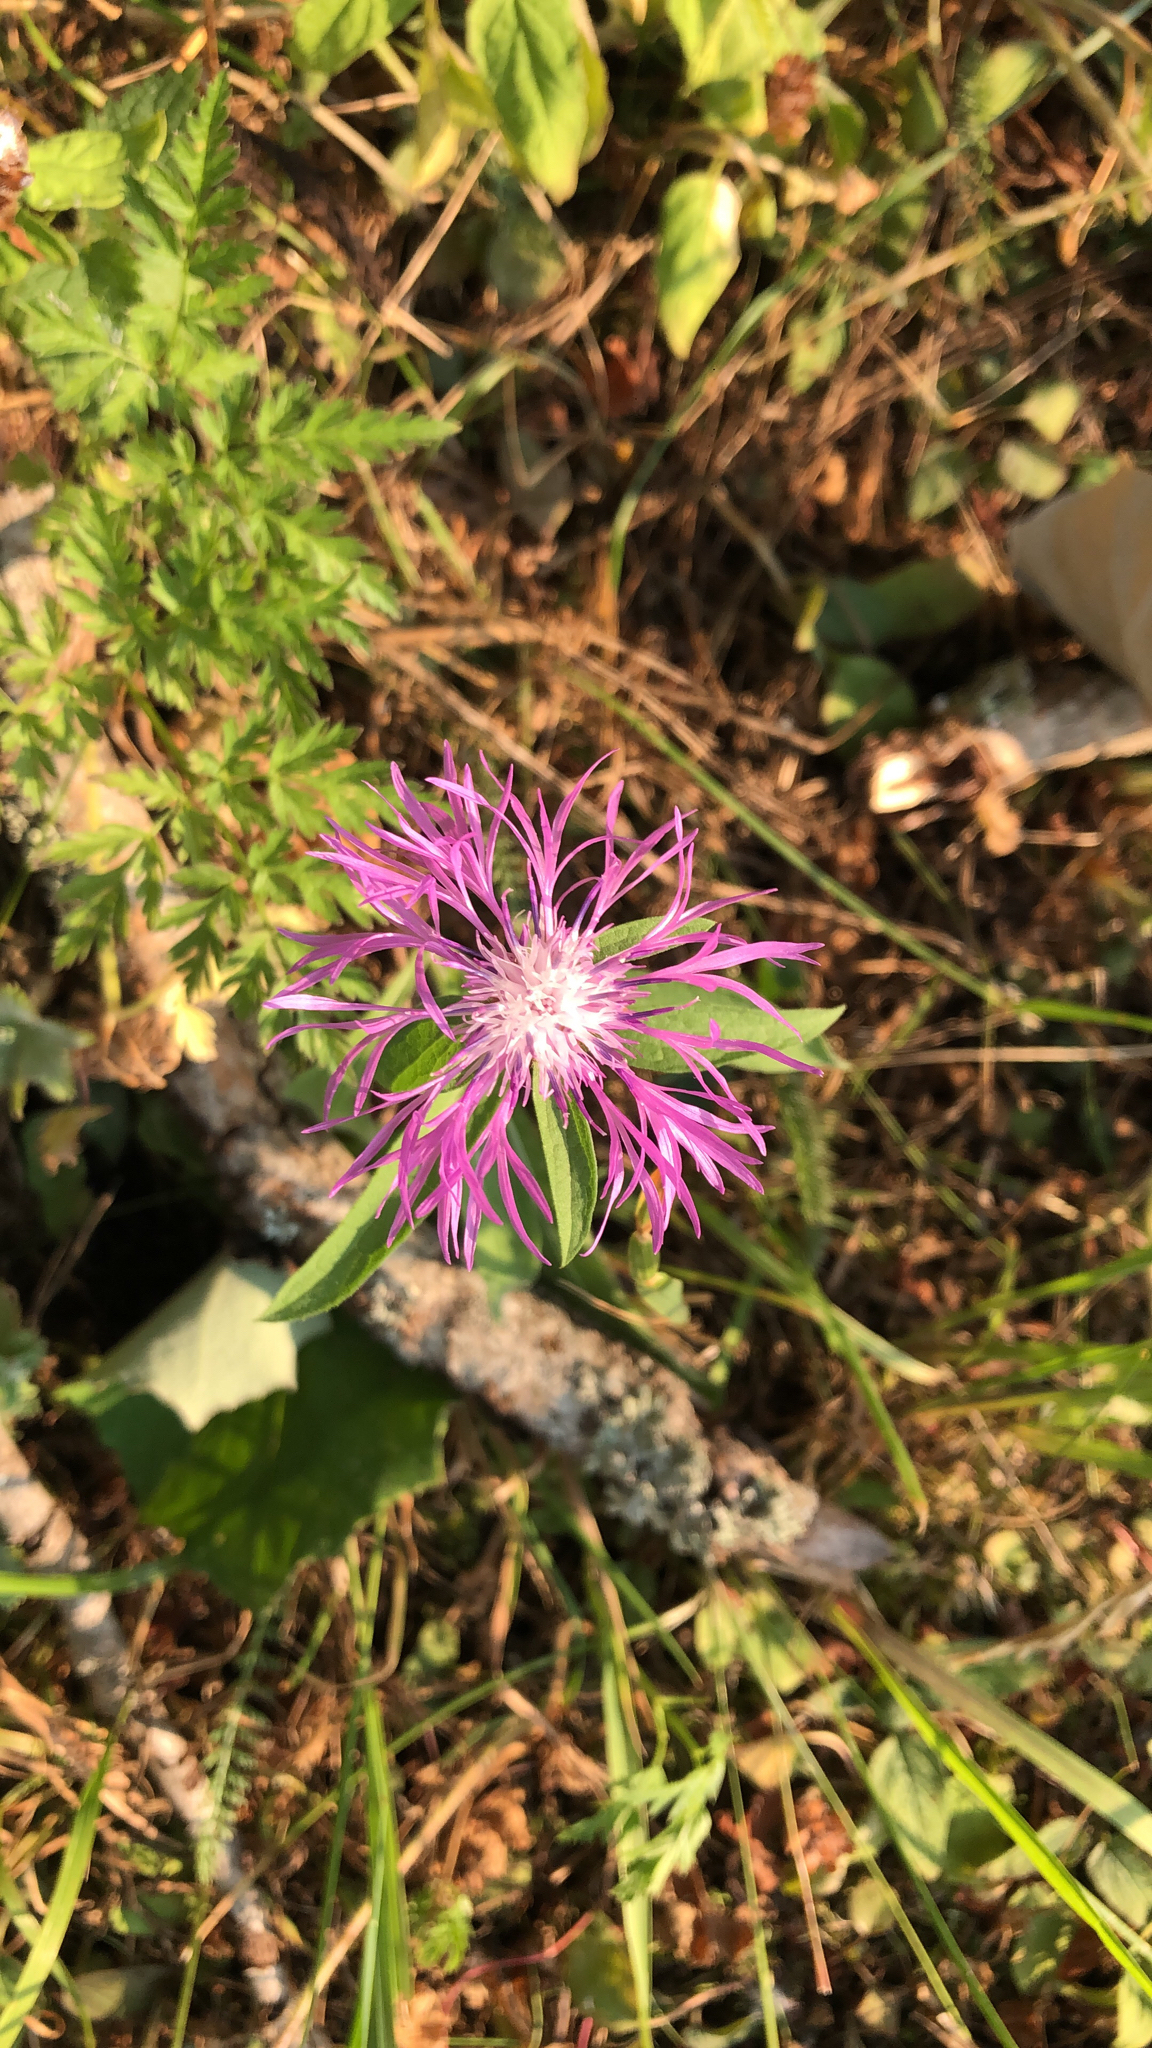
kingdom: Plantae
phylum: Tracheophyta
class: Magnoliopsida
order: Asterales
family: Asteraceae
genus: Centaurea
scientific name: Centaurea jacea
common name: Brown knapweed
